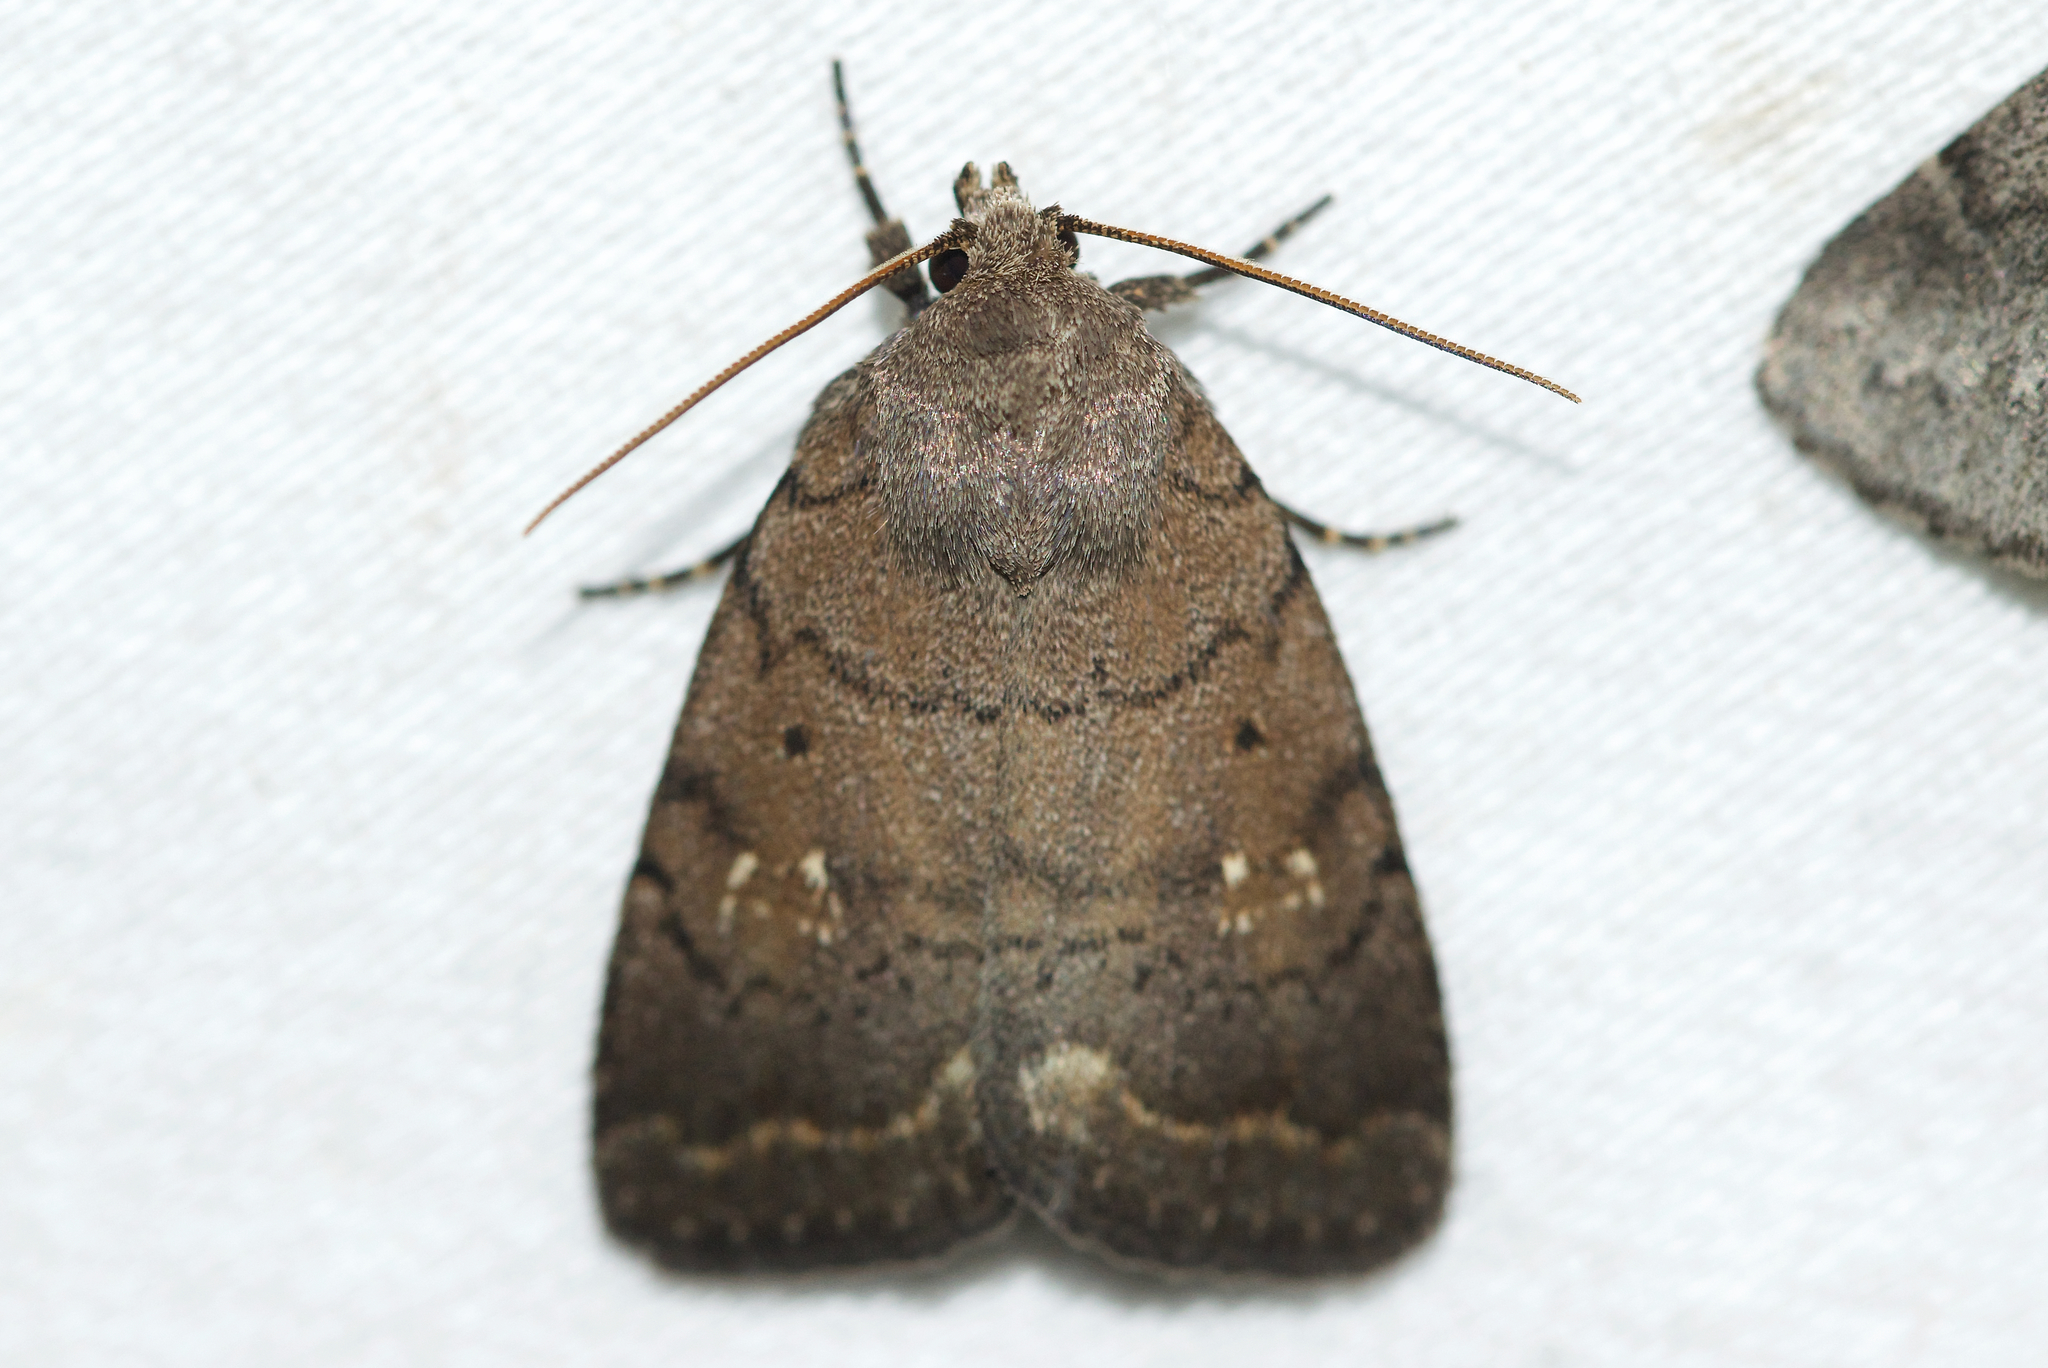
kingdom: Animalia
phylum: Arthropoda
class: Insecta
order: Lepidoptera
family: Noctuidae
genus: Athetis
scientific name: Athetis tarda
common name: Slowpoke moth
